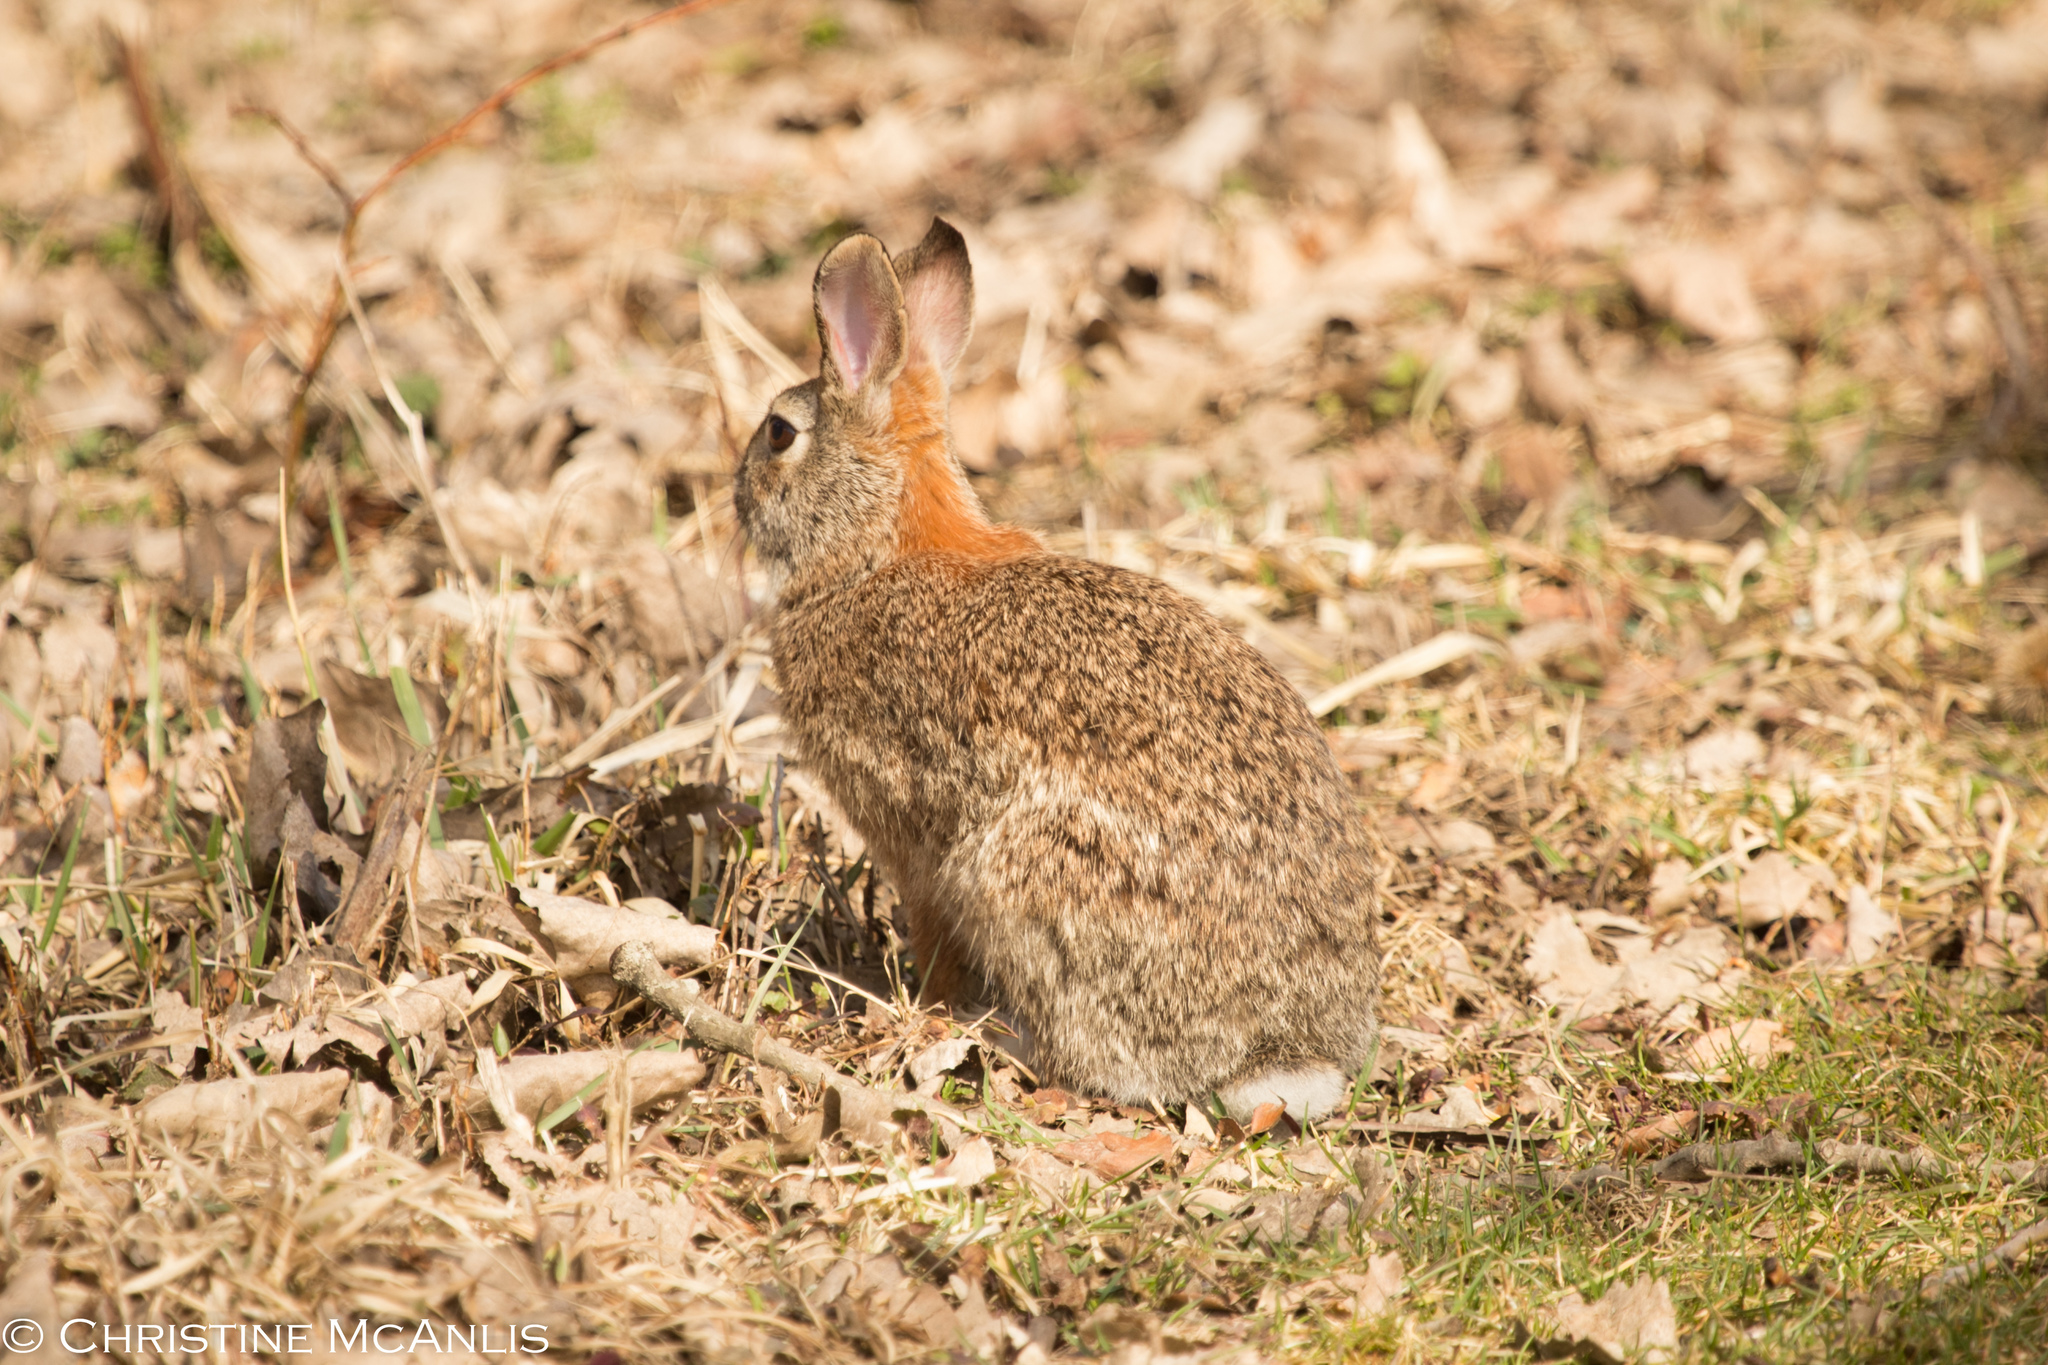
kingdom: Animalia
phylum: Chordata
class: Mammalia
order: Lagomorpha
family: Leporidae
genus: Sylvilagus
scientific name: Sylvilagus floridanus
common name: Eastern cottontail
